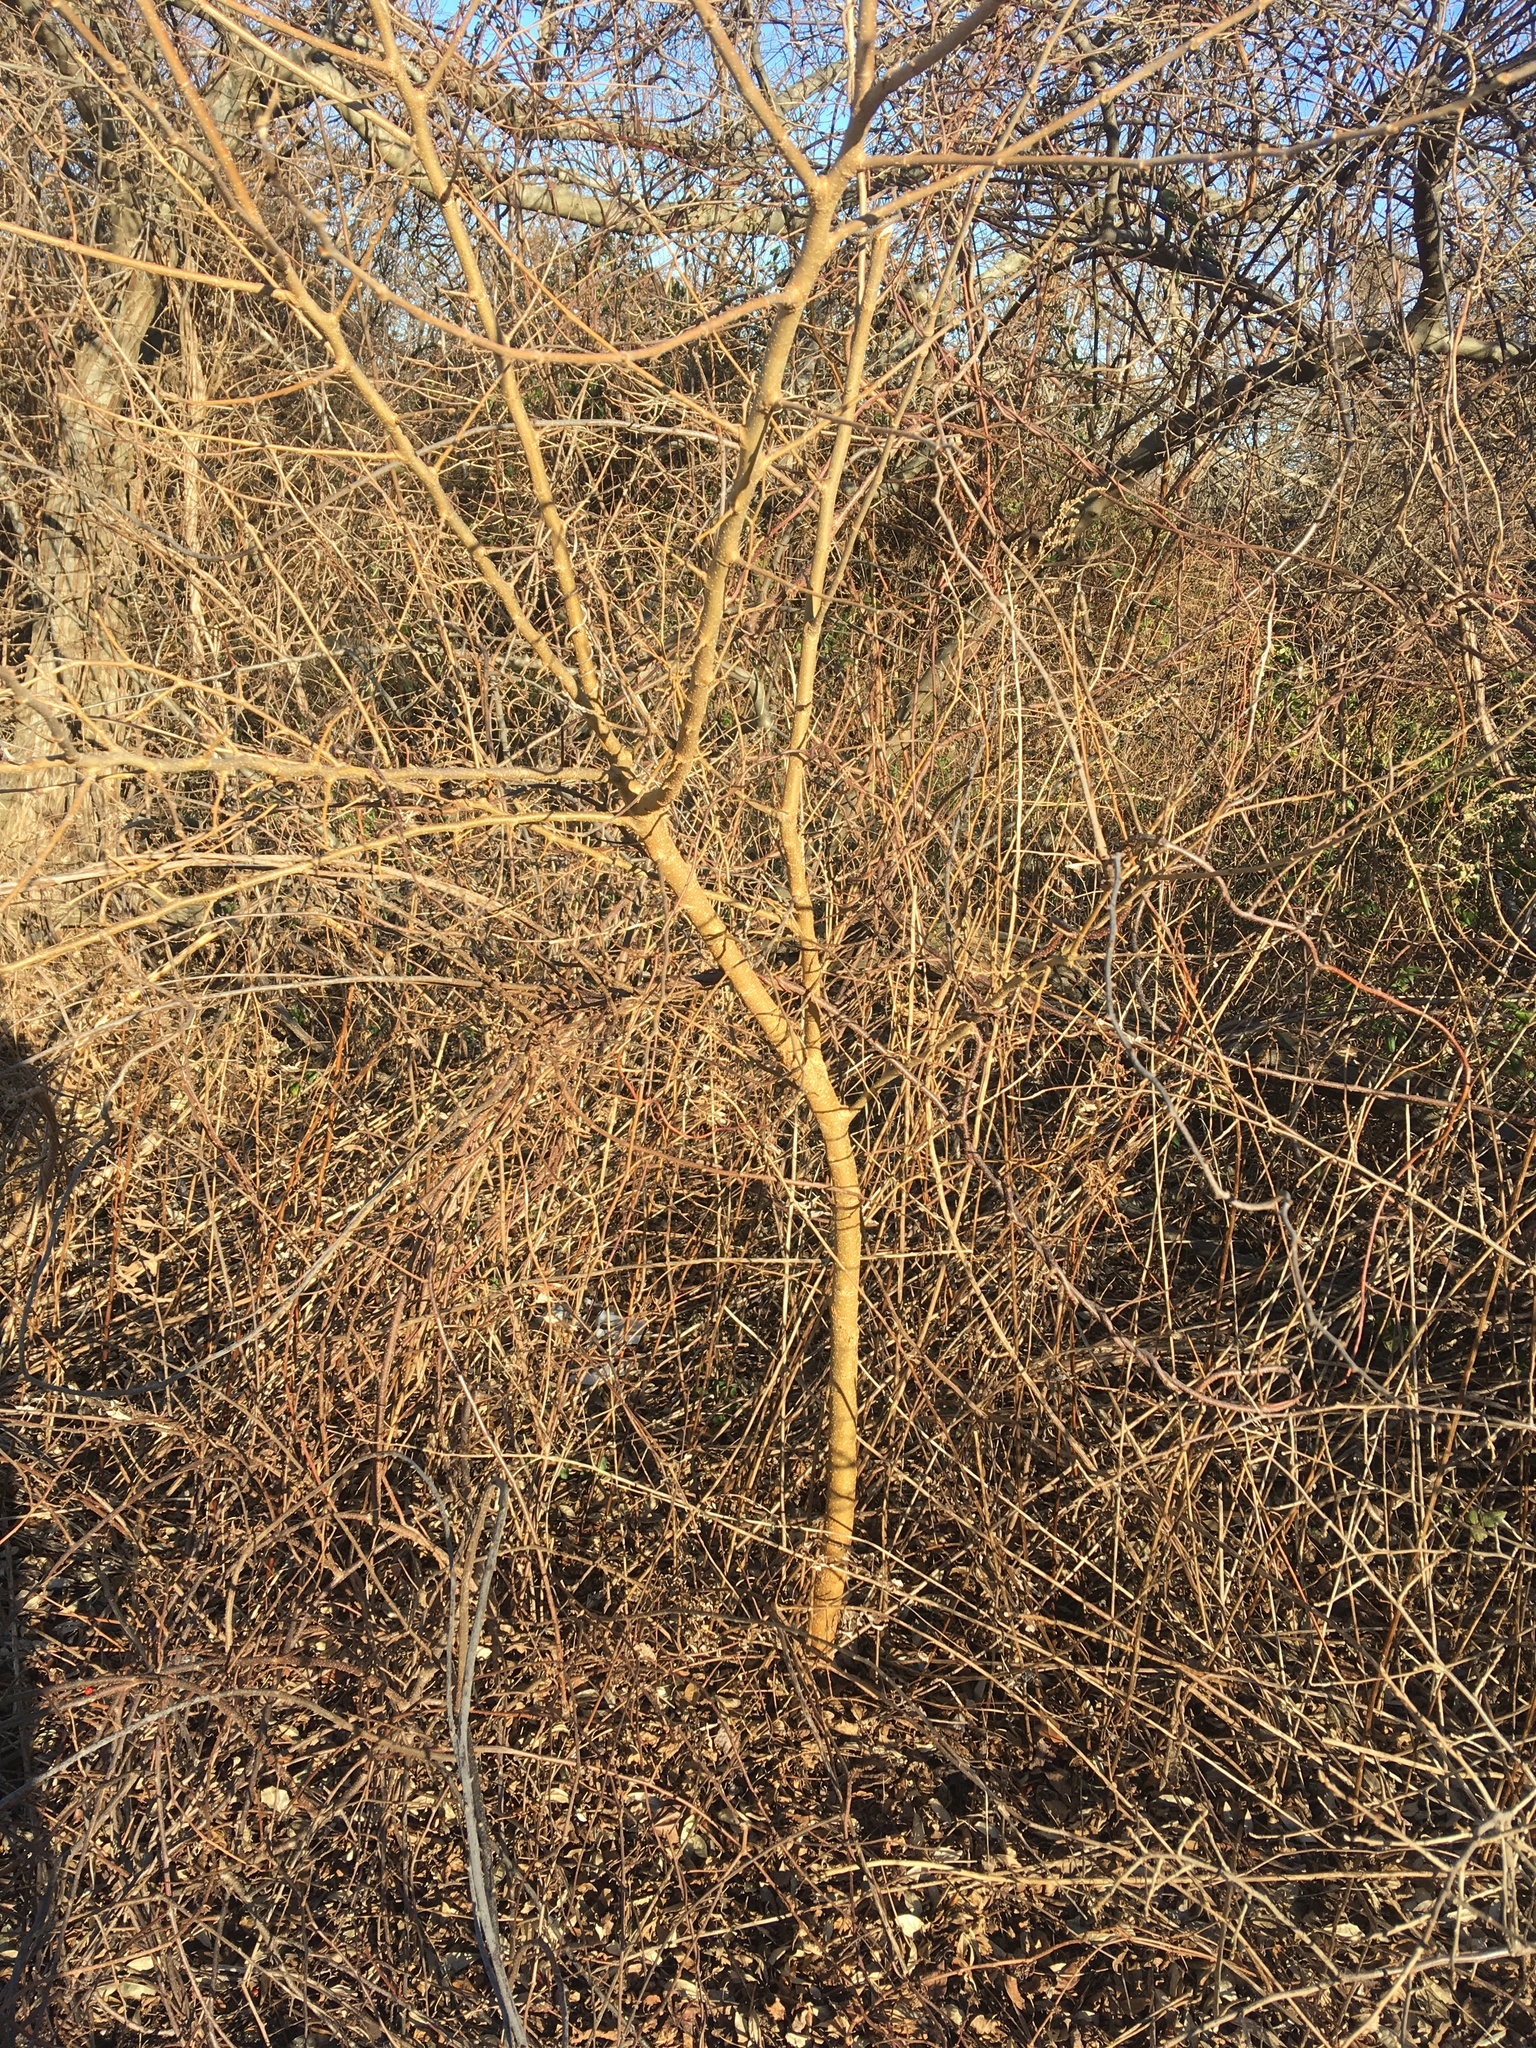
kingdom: Plantae
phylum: Tracheophyta
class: Magnoliopsida
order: Rosales
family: Moraceae
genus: Morus
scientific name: Morus alba
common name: White mulberry
